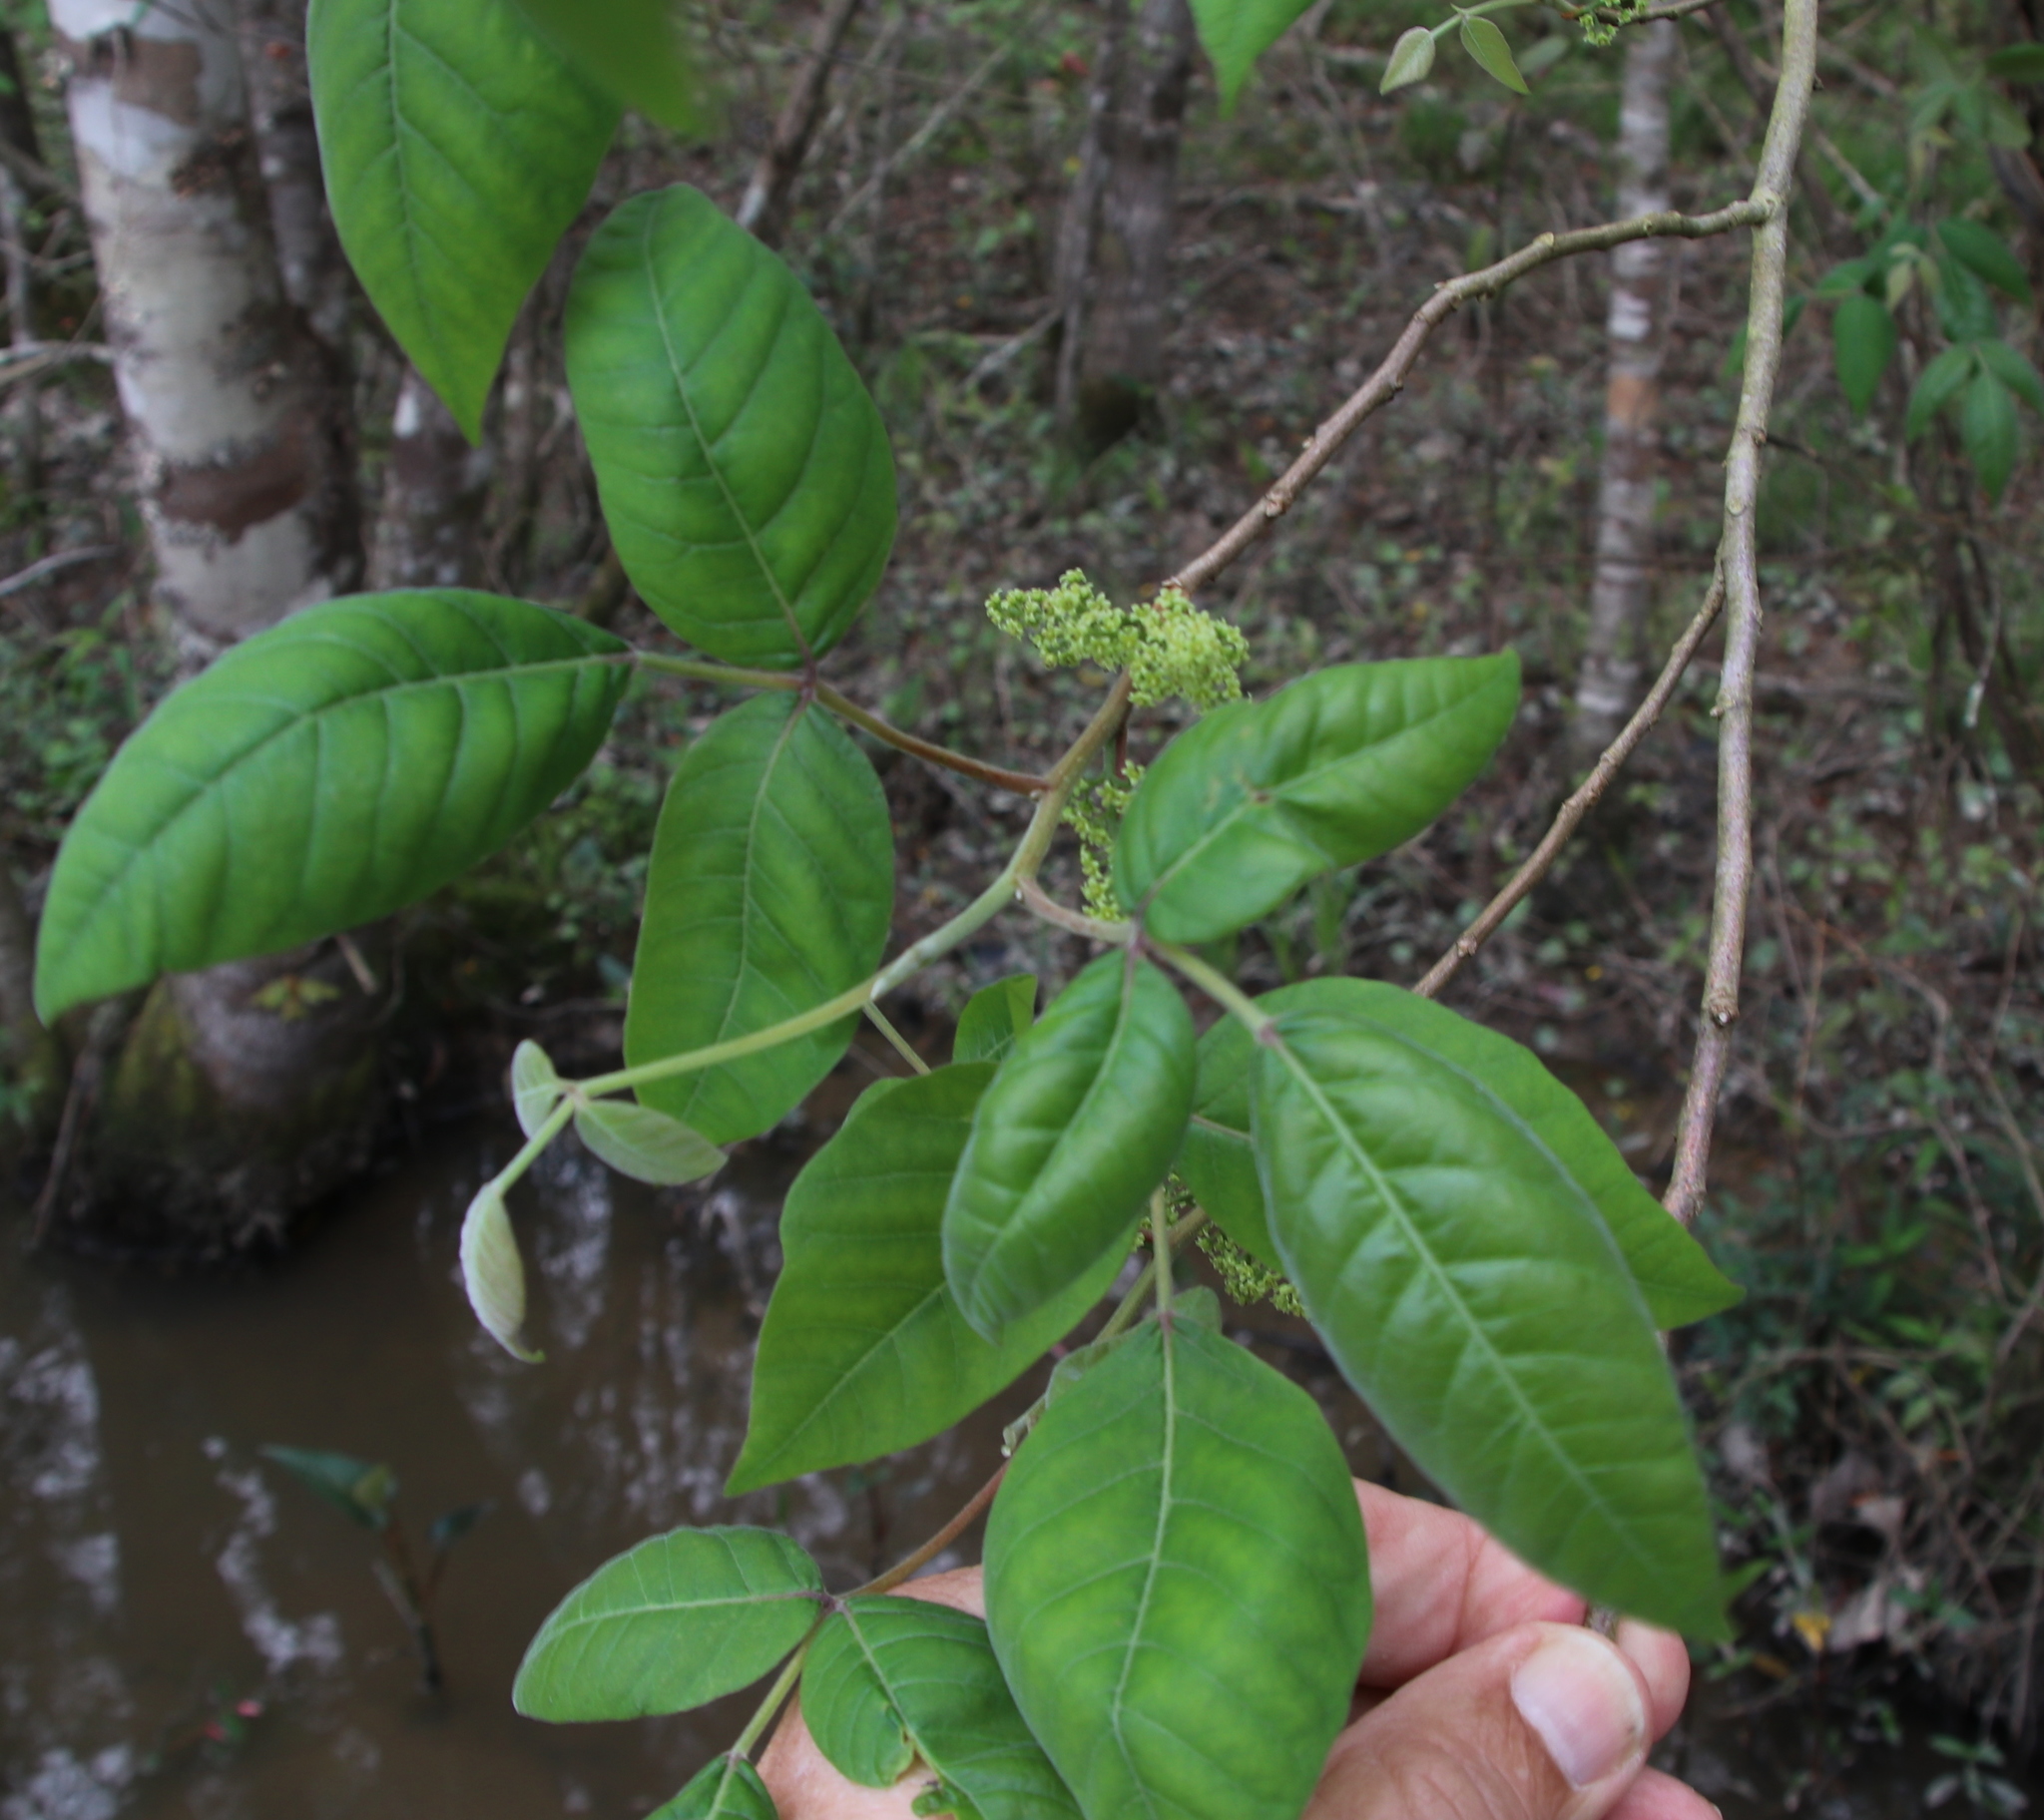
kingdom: Plantae
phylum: Tracheophyta
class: Magnoliopsida
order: Sapindales
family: Anacardiaceae
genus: Toxicodendron
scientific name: Toxicodendron radicans
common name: Poison ivy
